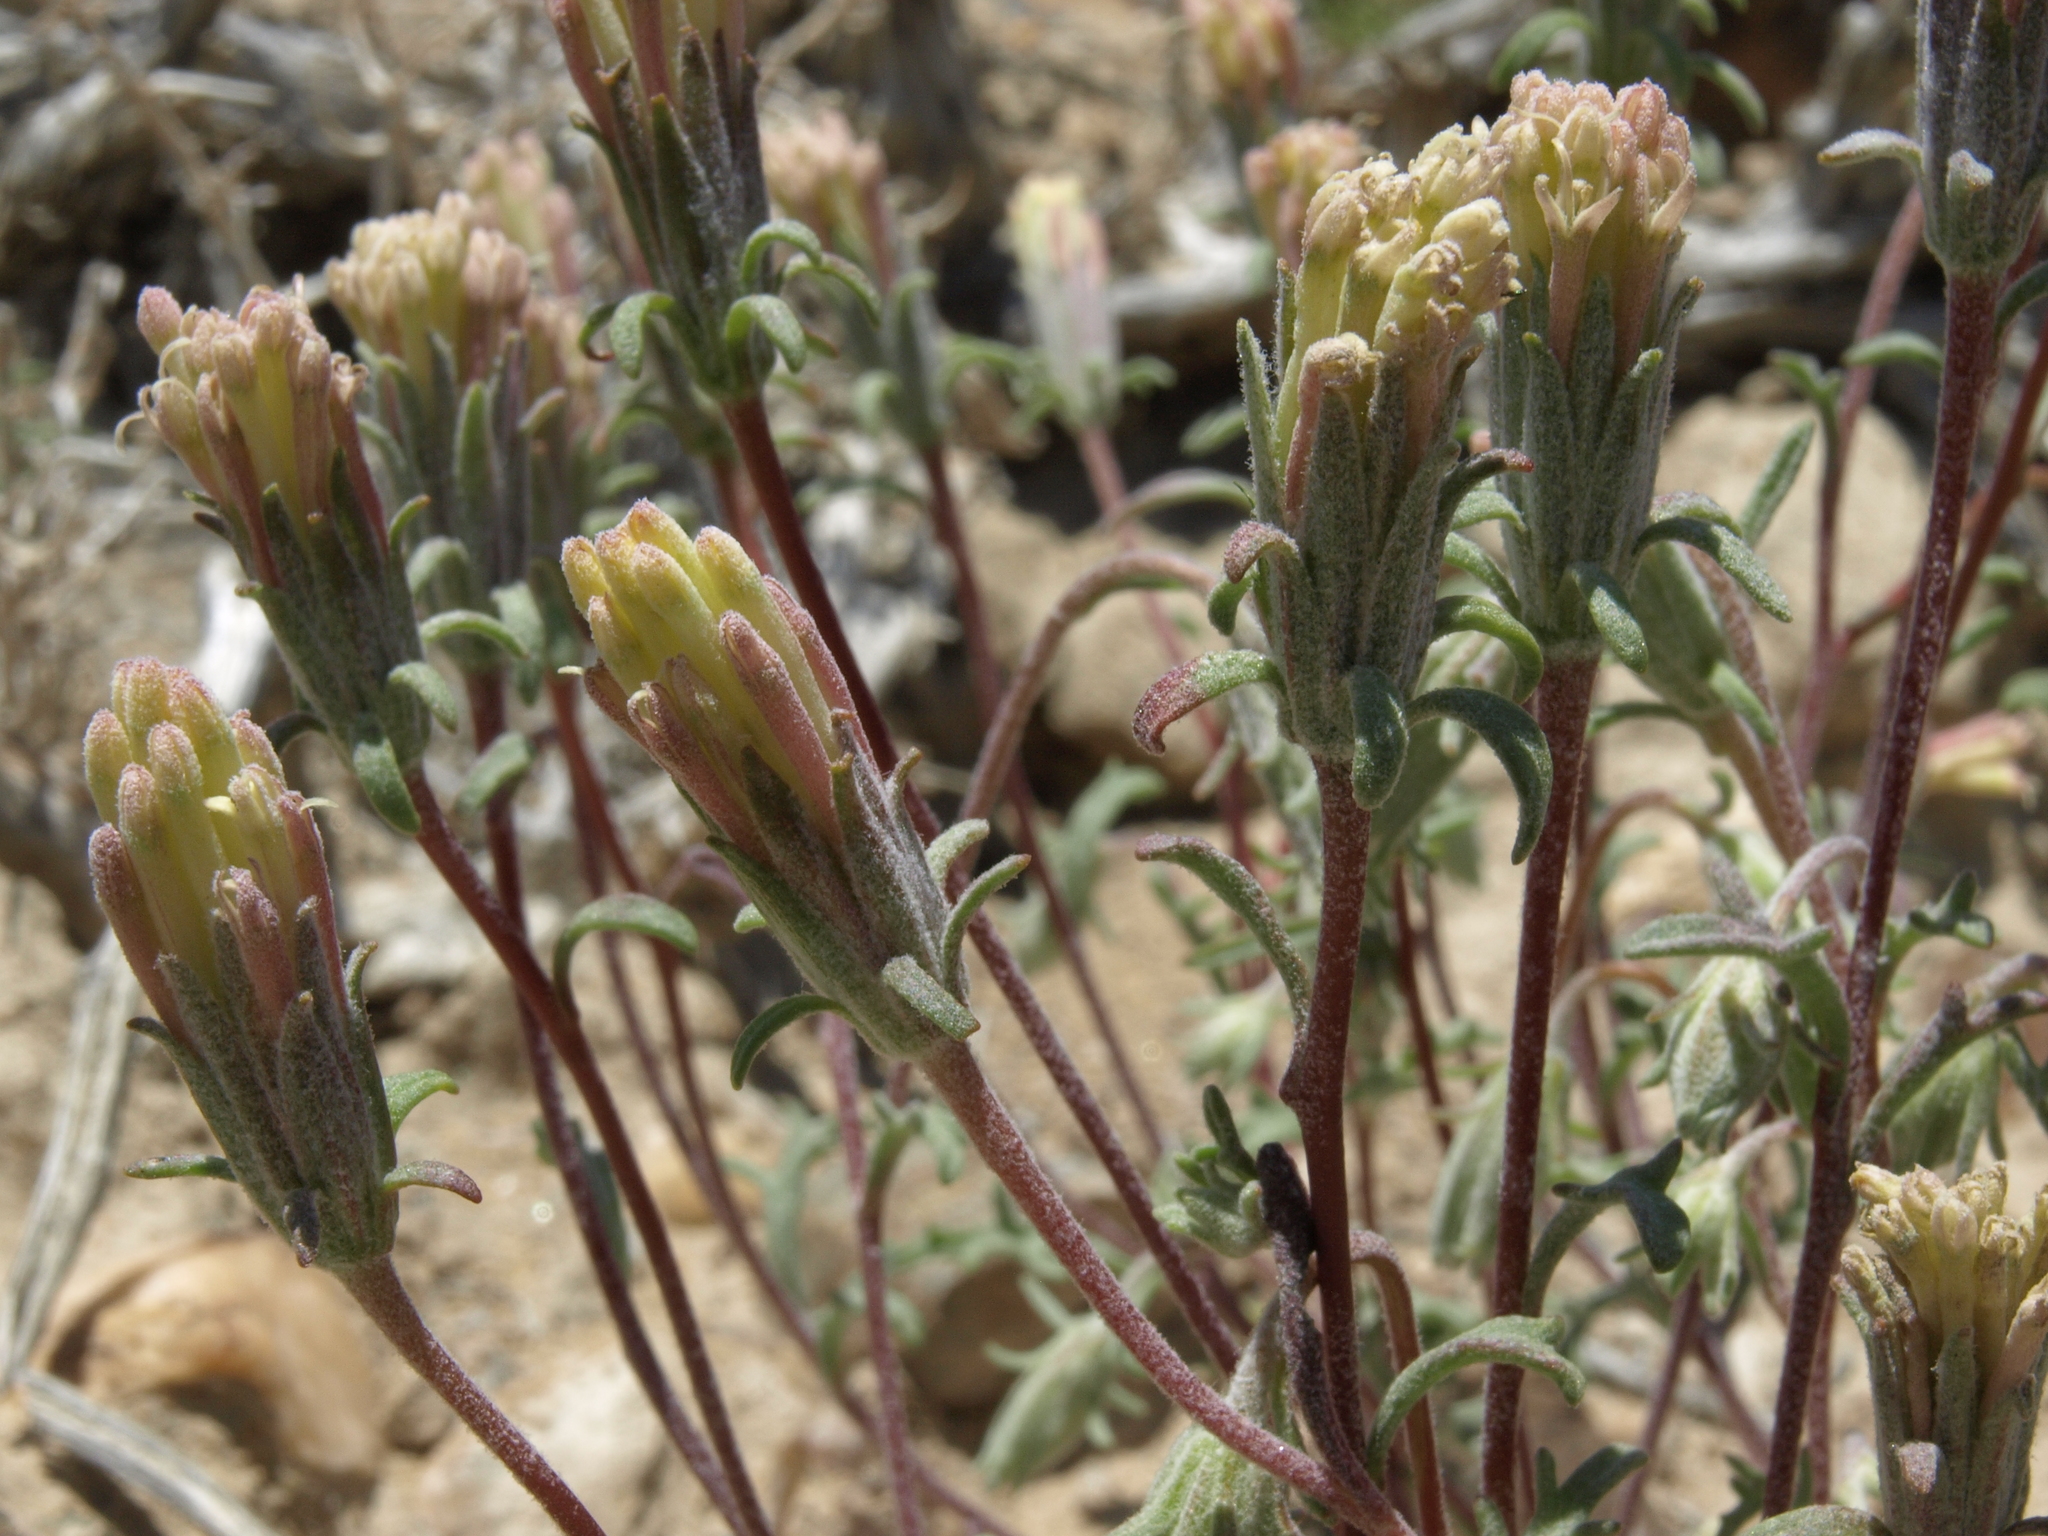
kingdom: Plantae
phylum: Tracheophyta
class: Magnoliopsida
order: Asterales
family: Asteraceae
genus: Chaenactis
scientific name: Chaenactis macrantha
